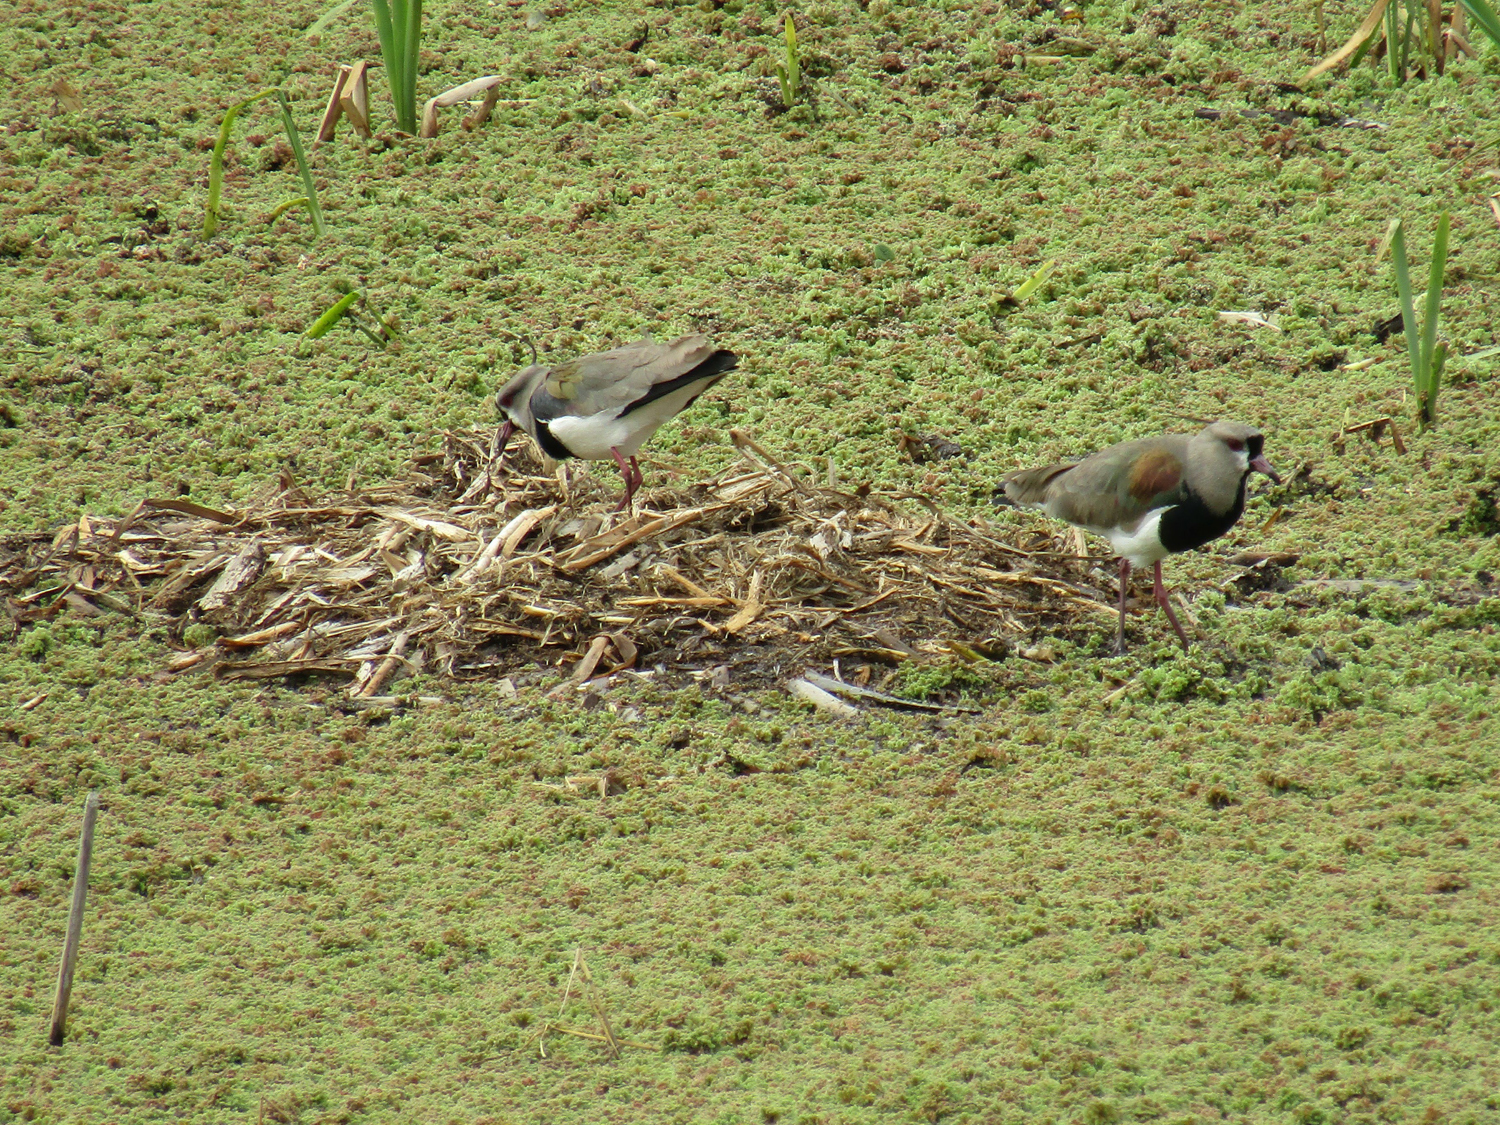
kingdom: Animalia
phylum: Chordata
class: Aves
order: Charadriiformes
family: Charadriidae
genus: Vanellus
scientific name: Vanellus chilensis
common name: Southern lapwing
